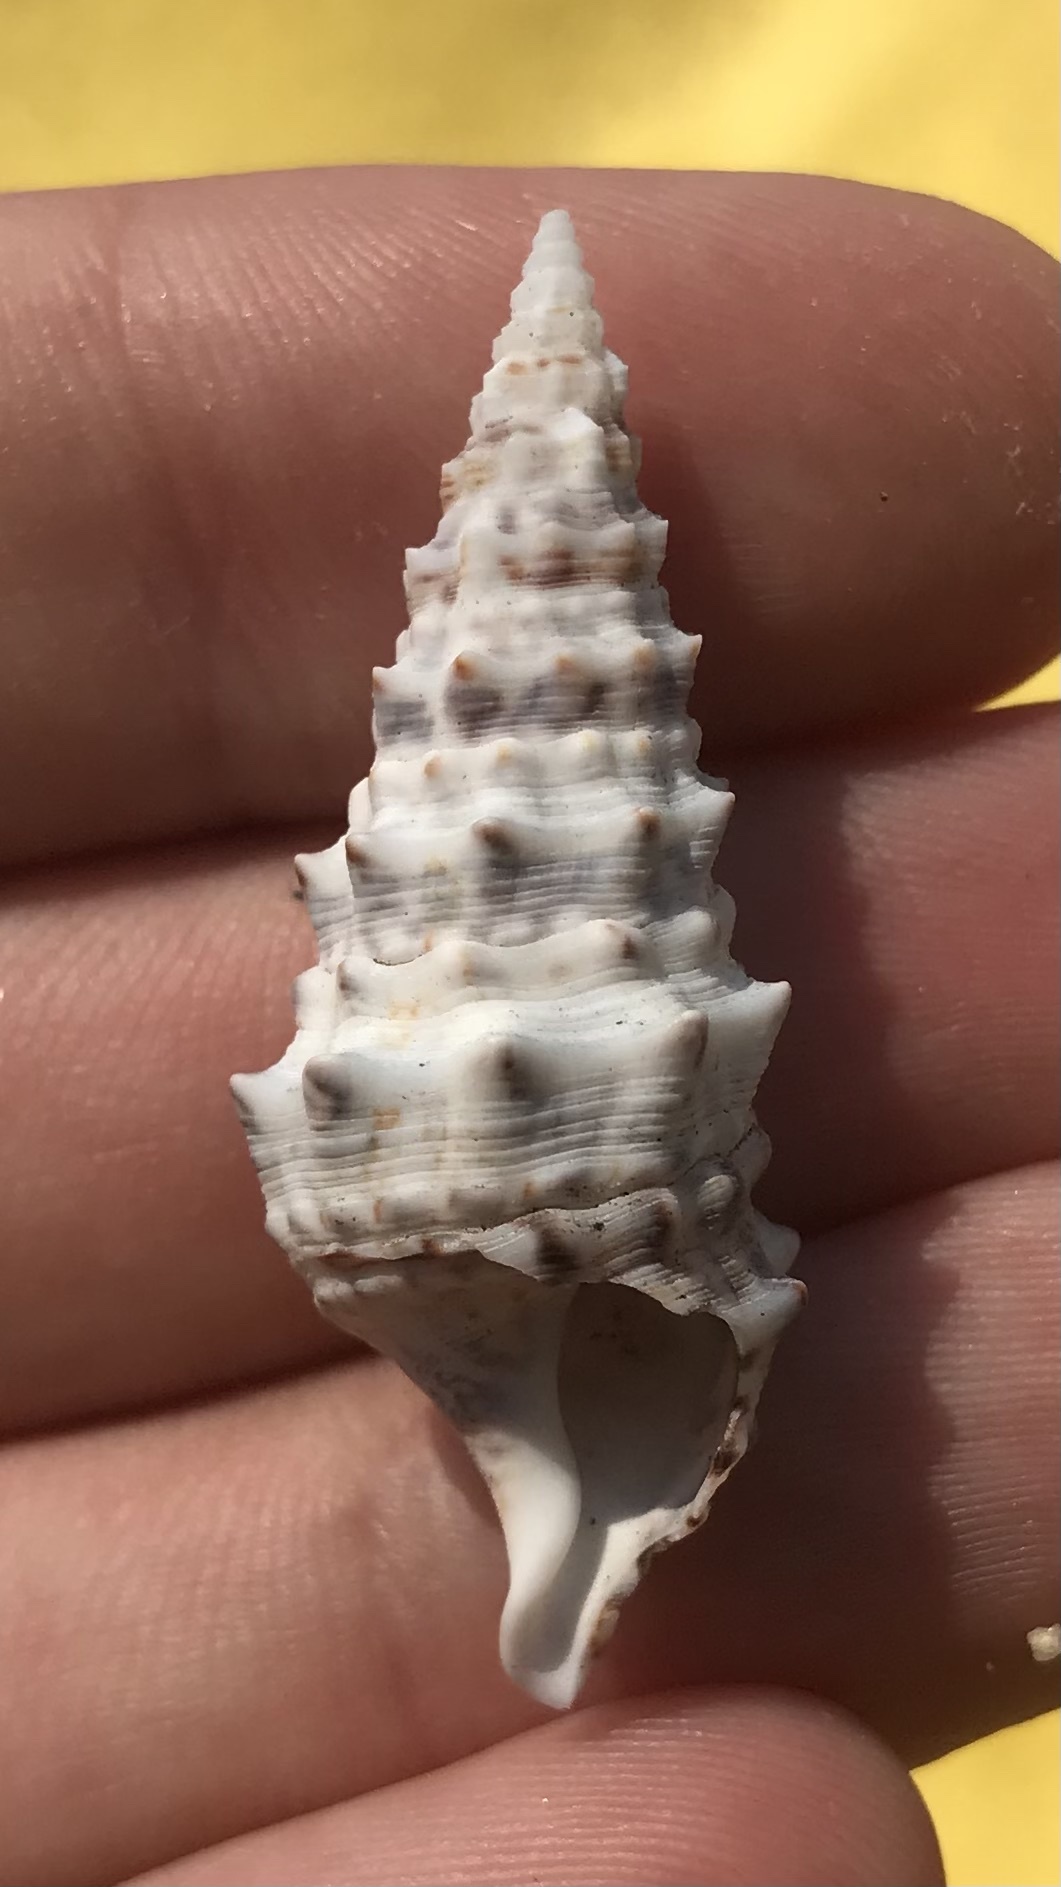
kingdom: Animalia
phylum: Mollusca
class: Gastropoda
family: Cerithiidae
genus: Cerithium
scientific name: Cerithium vulgatum
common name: European cerith
